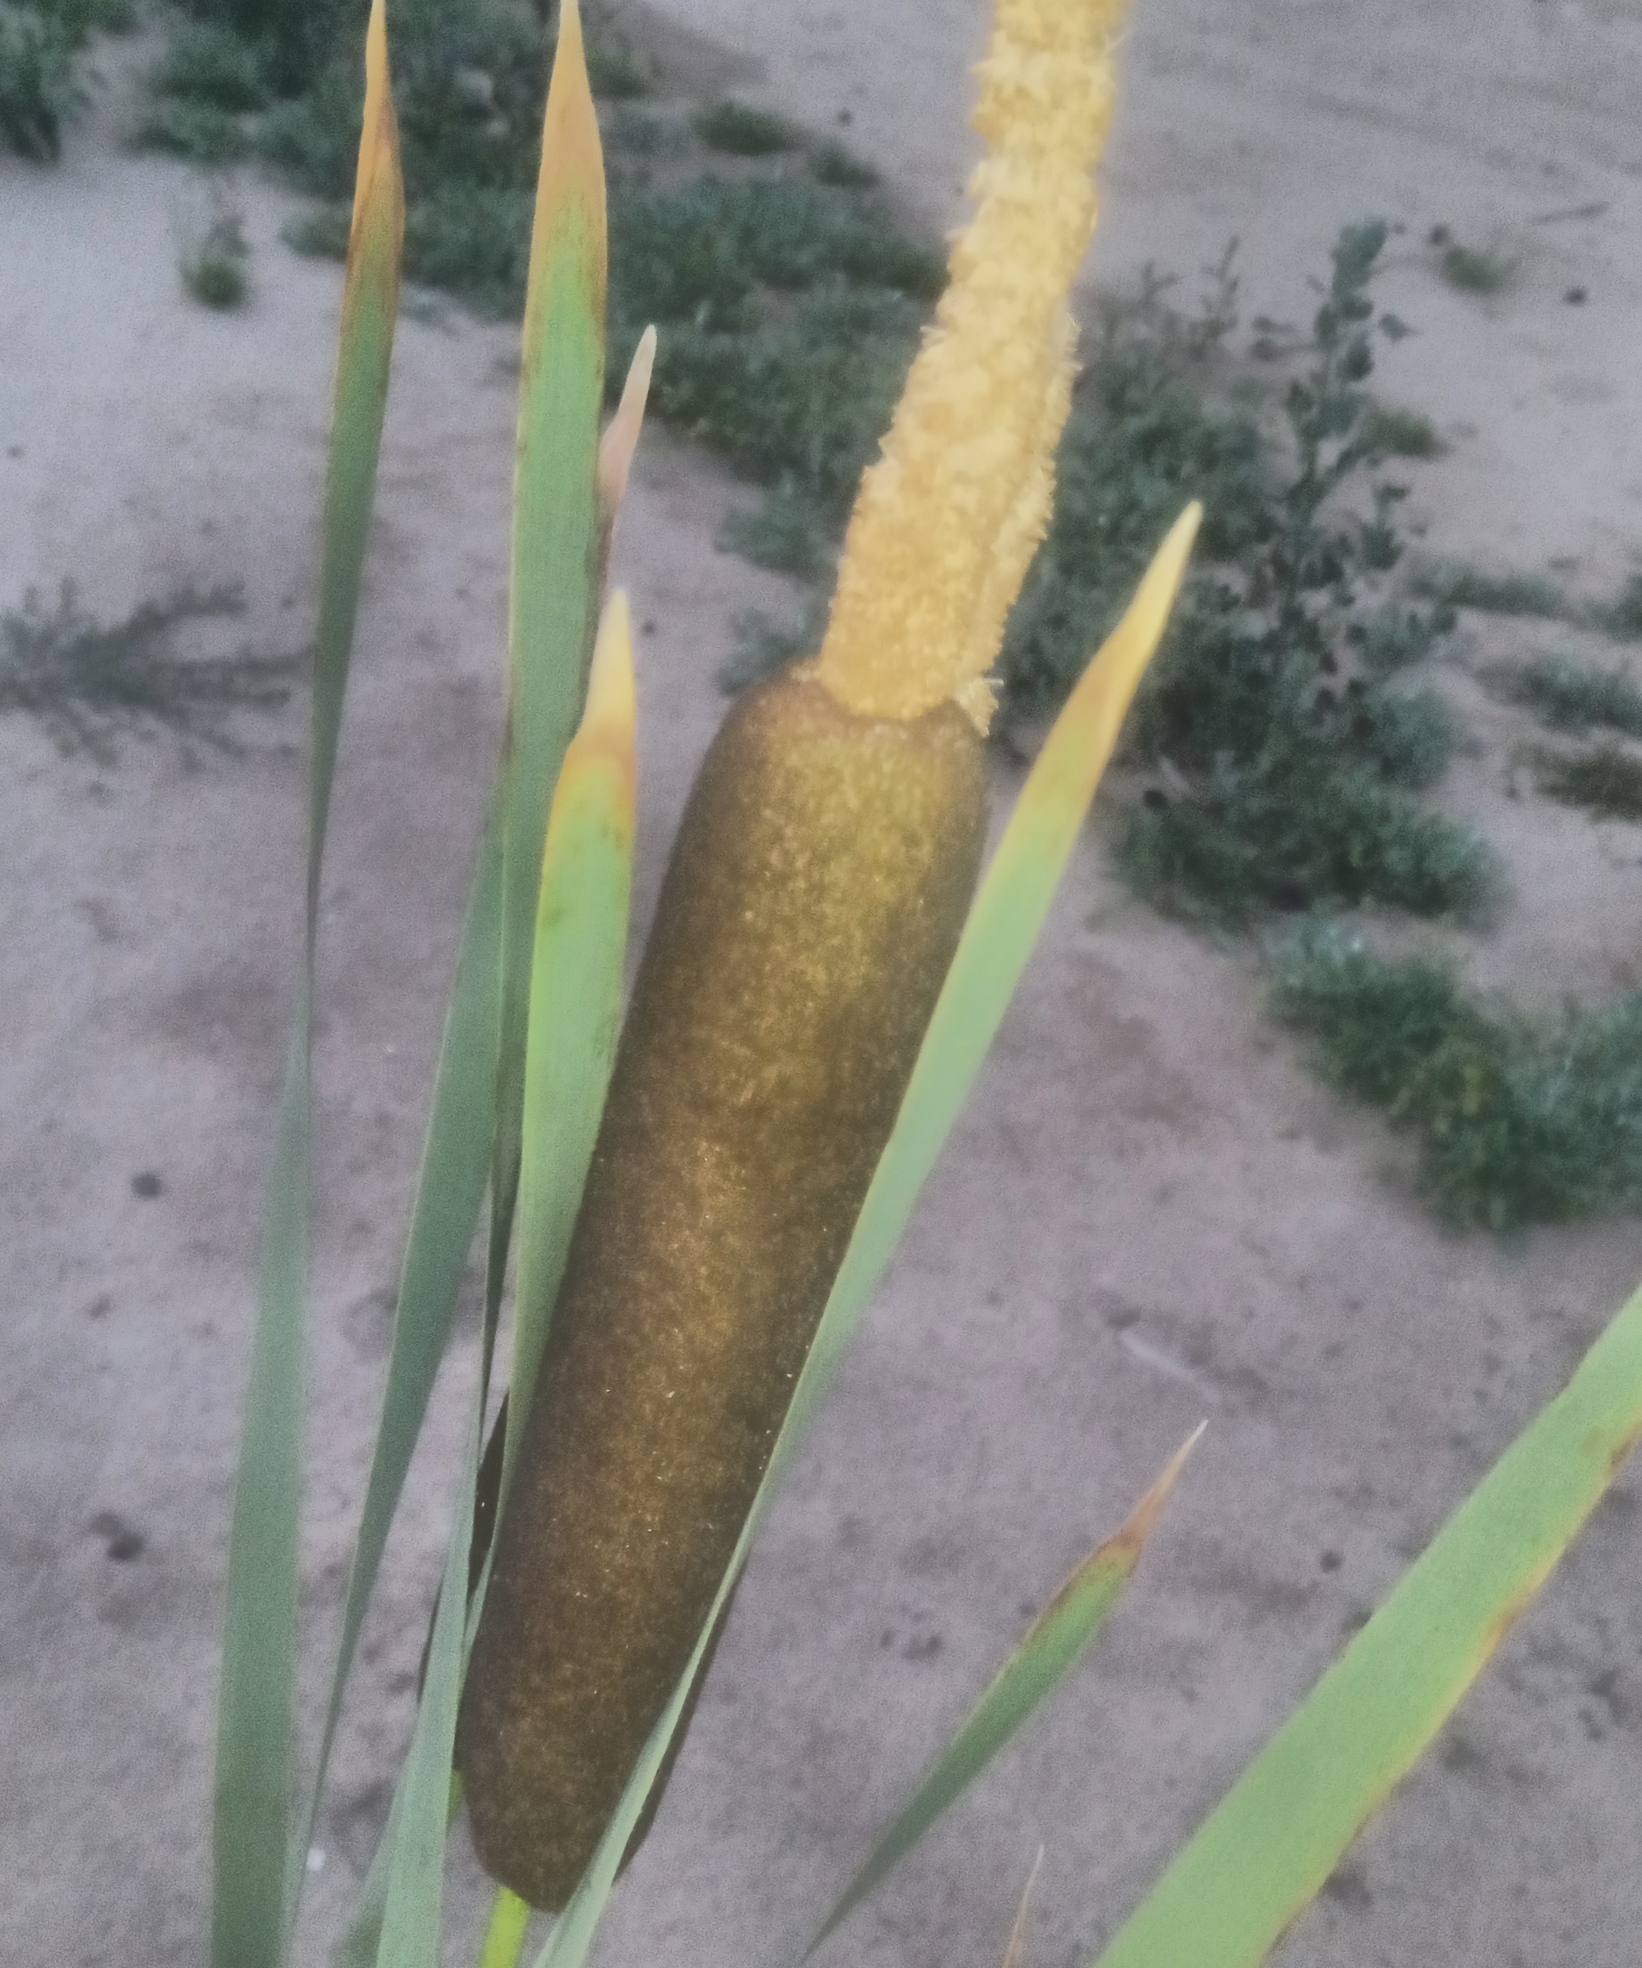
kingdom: Plantae
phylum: Tracheophyta
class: Liliopsida
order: Poales
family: Typhaceae
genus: Typha
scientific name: Typha latifolia
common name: Broadleaf cattail
